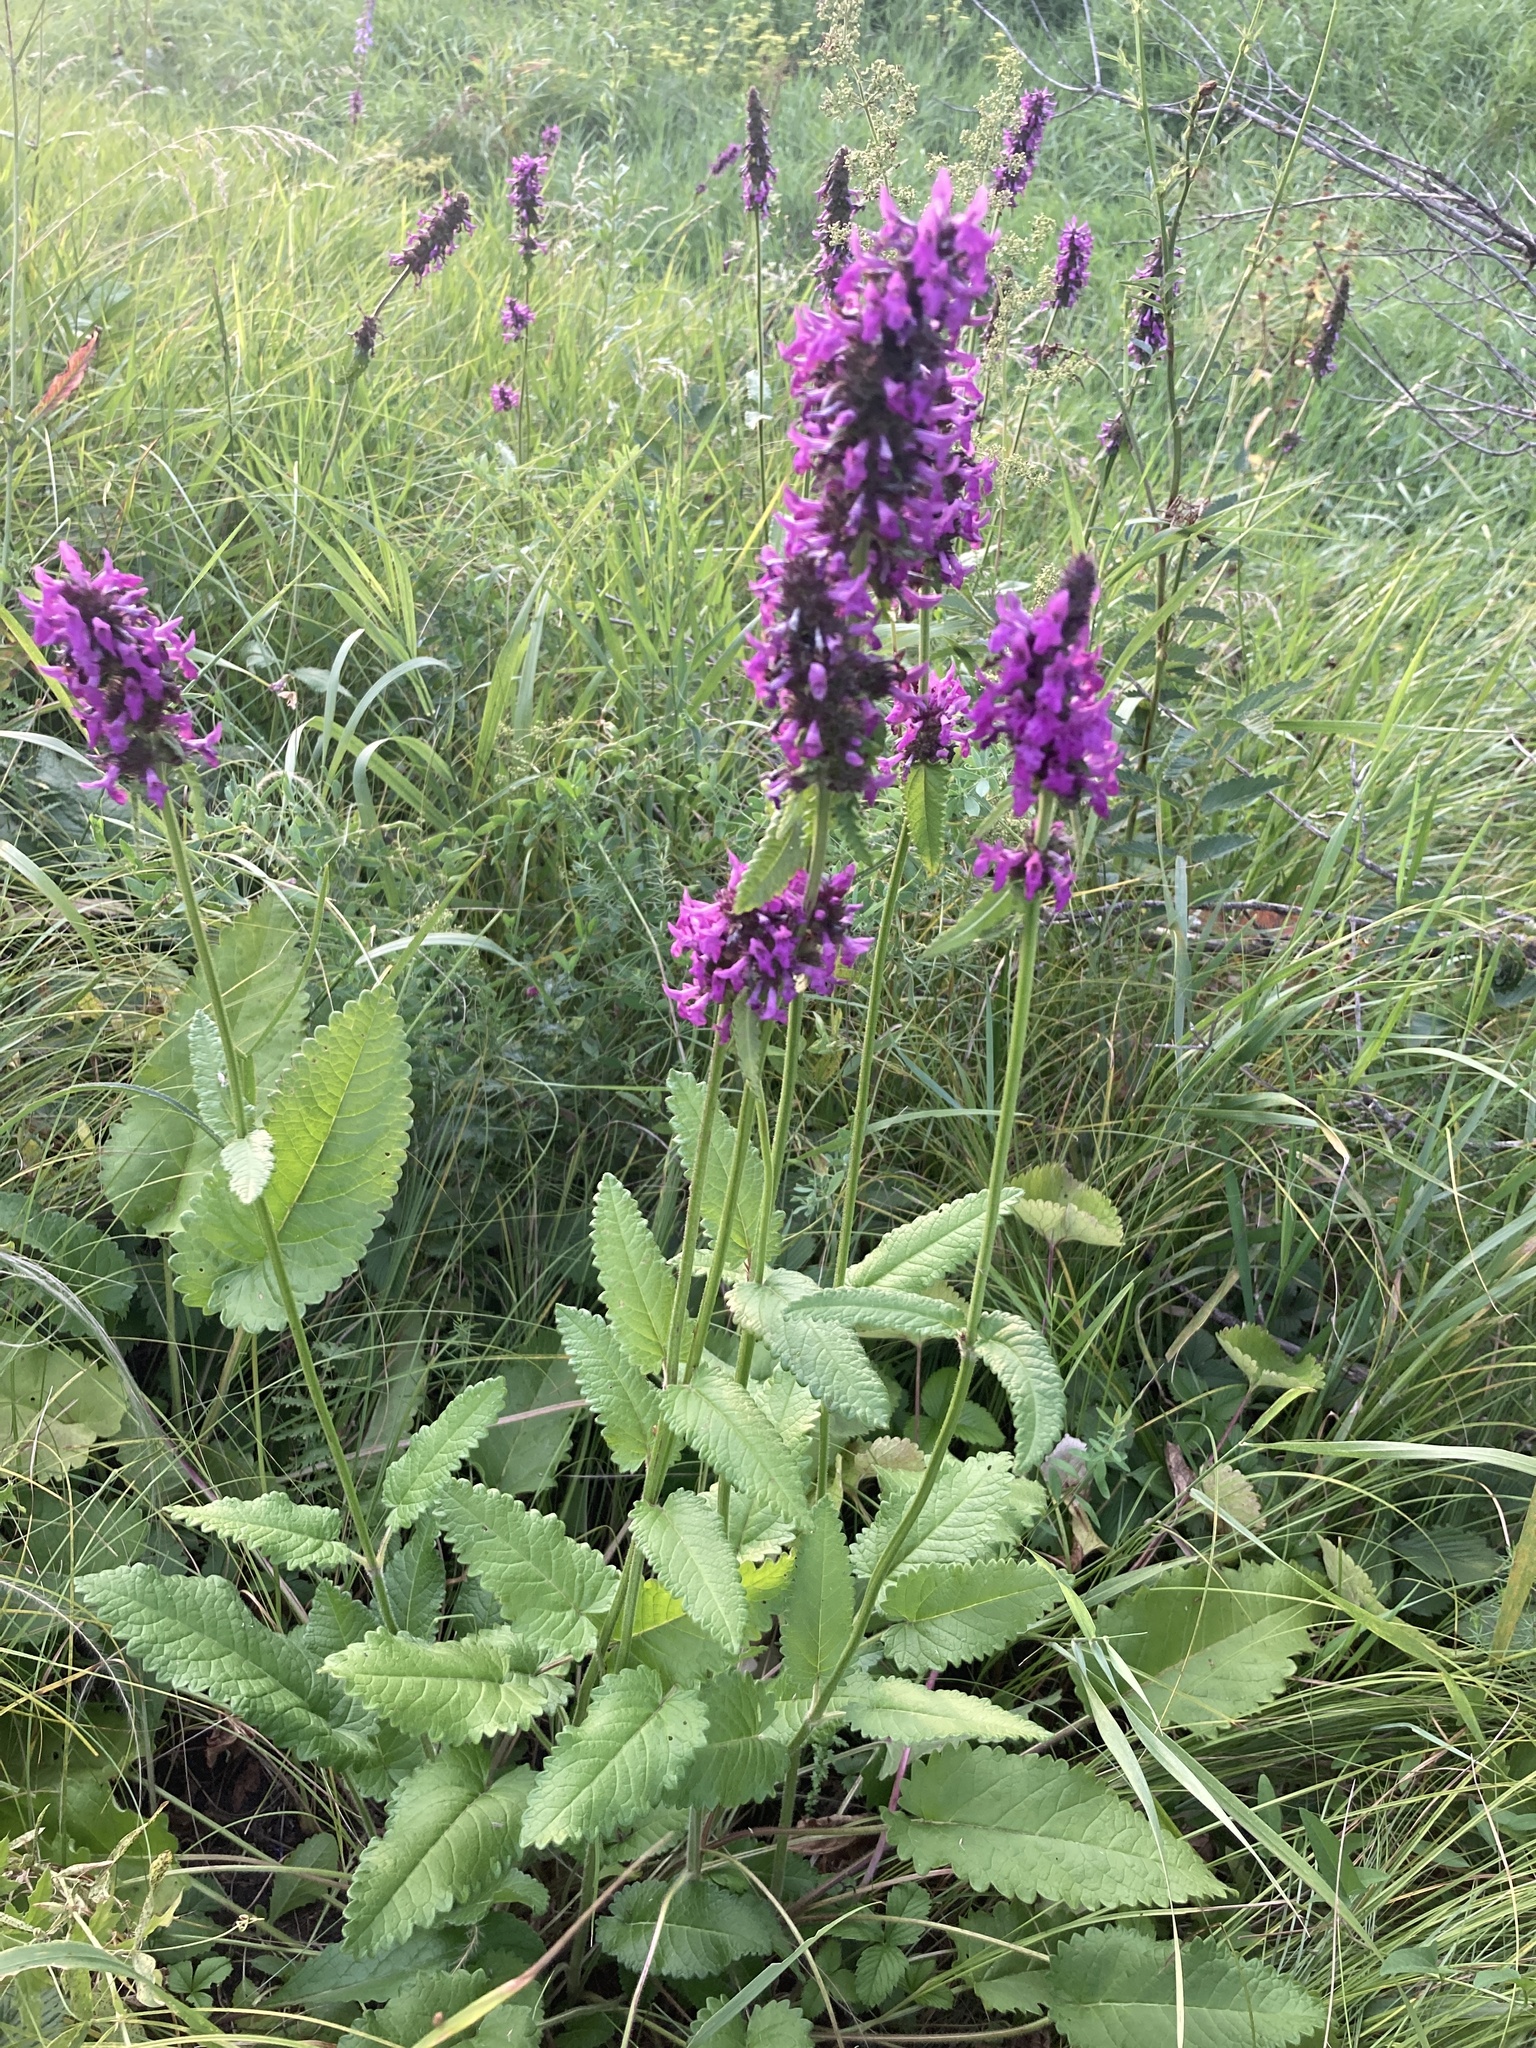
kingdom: Plantae
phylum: Tracheophyta
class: Magnoliopsida
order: Lamiales
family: Lamiaceae
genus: Betonica
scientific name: Betonica officinalis
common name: Bishop's-wort
